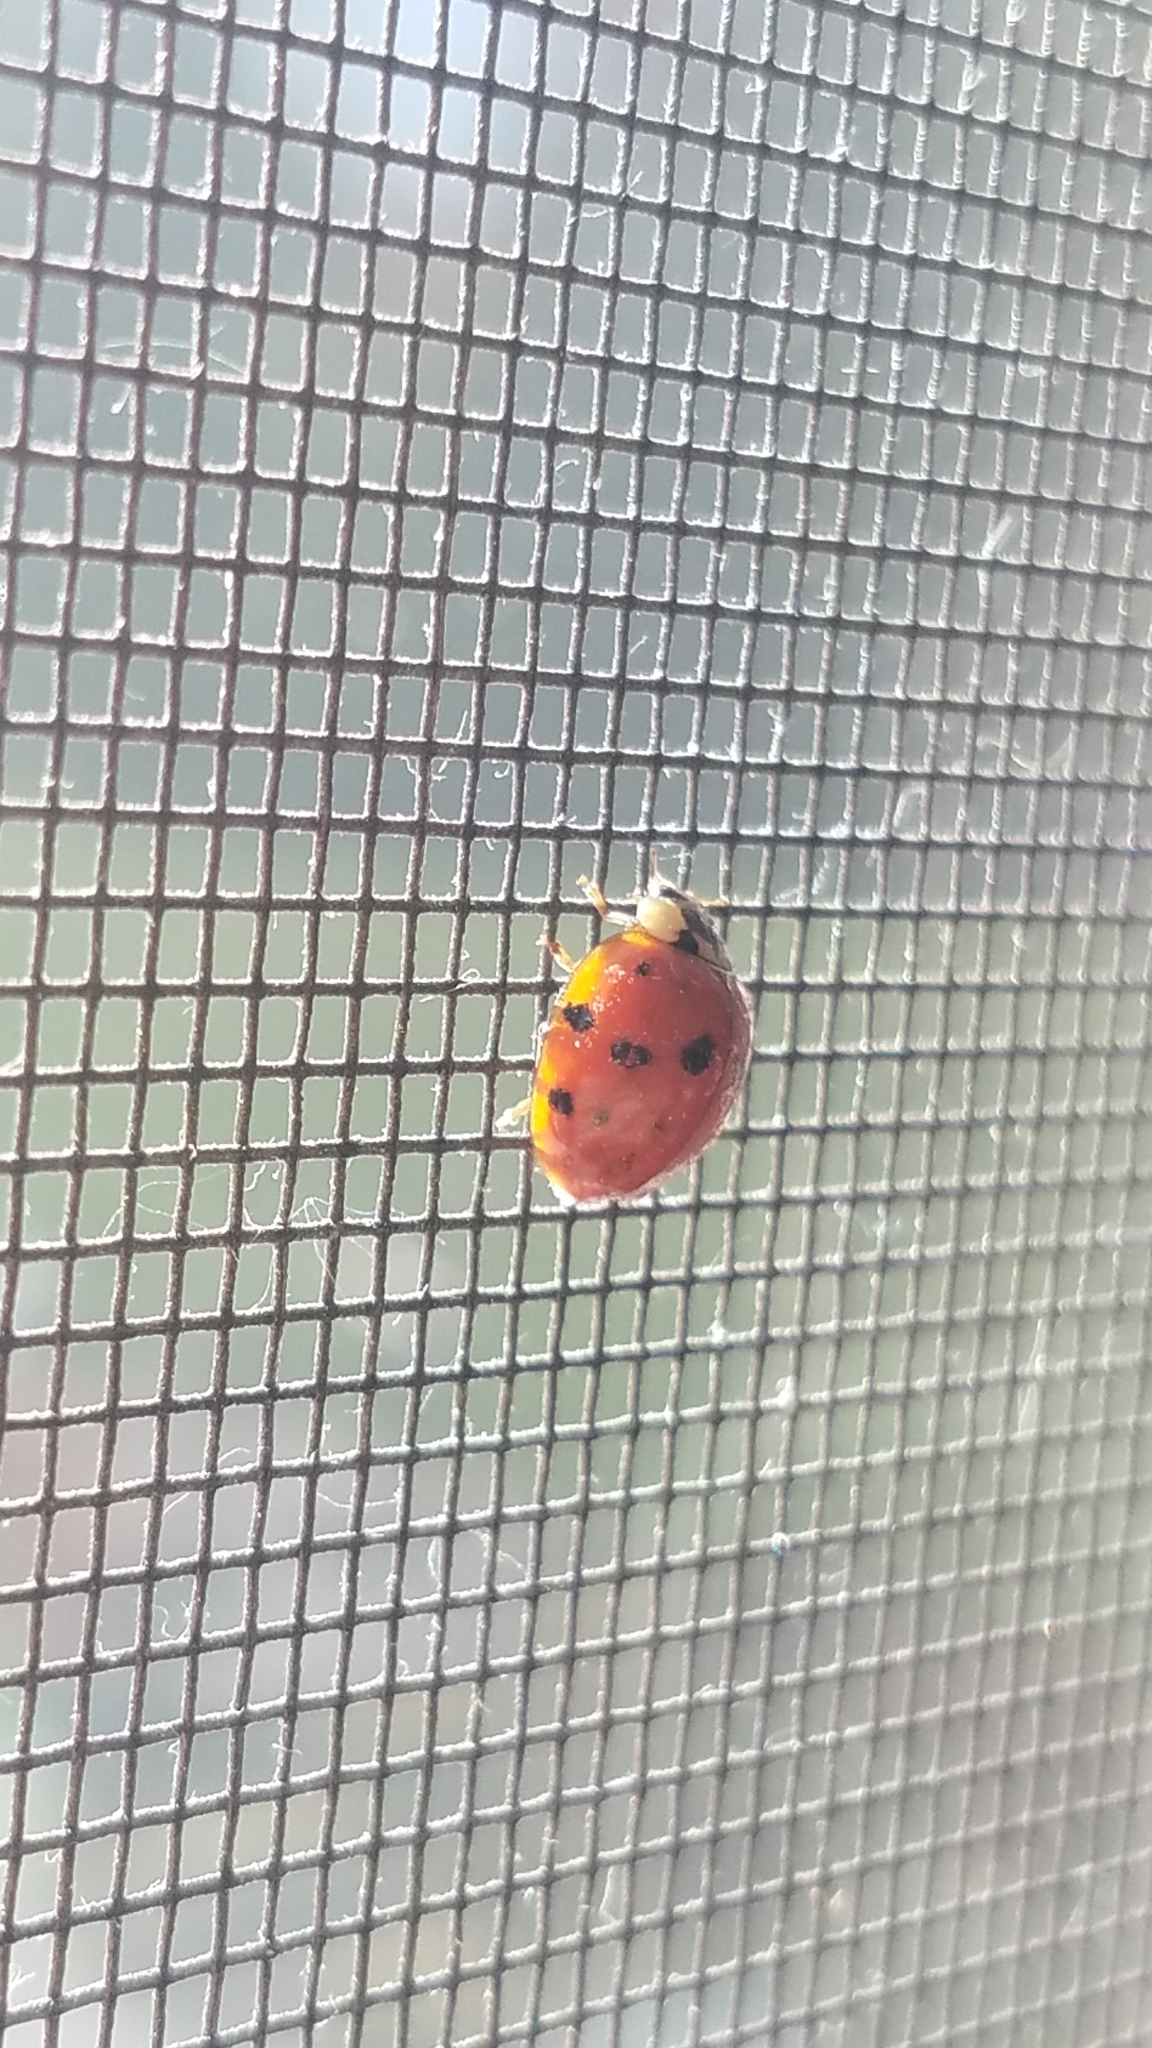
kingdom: Animalia
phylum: Arthropoda
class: Insecta
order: Coleoptera
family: Coccinellidae
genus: Harmonia
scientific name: Harmonia axyridis
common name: Harlequin ladybird
